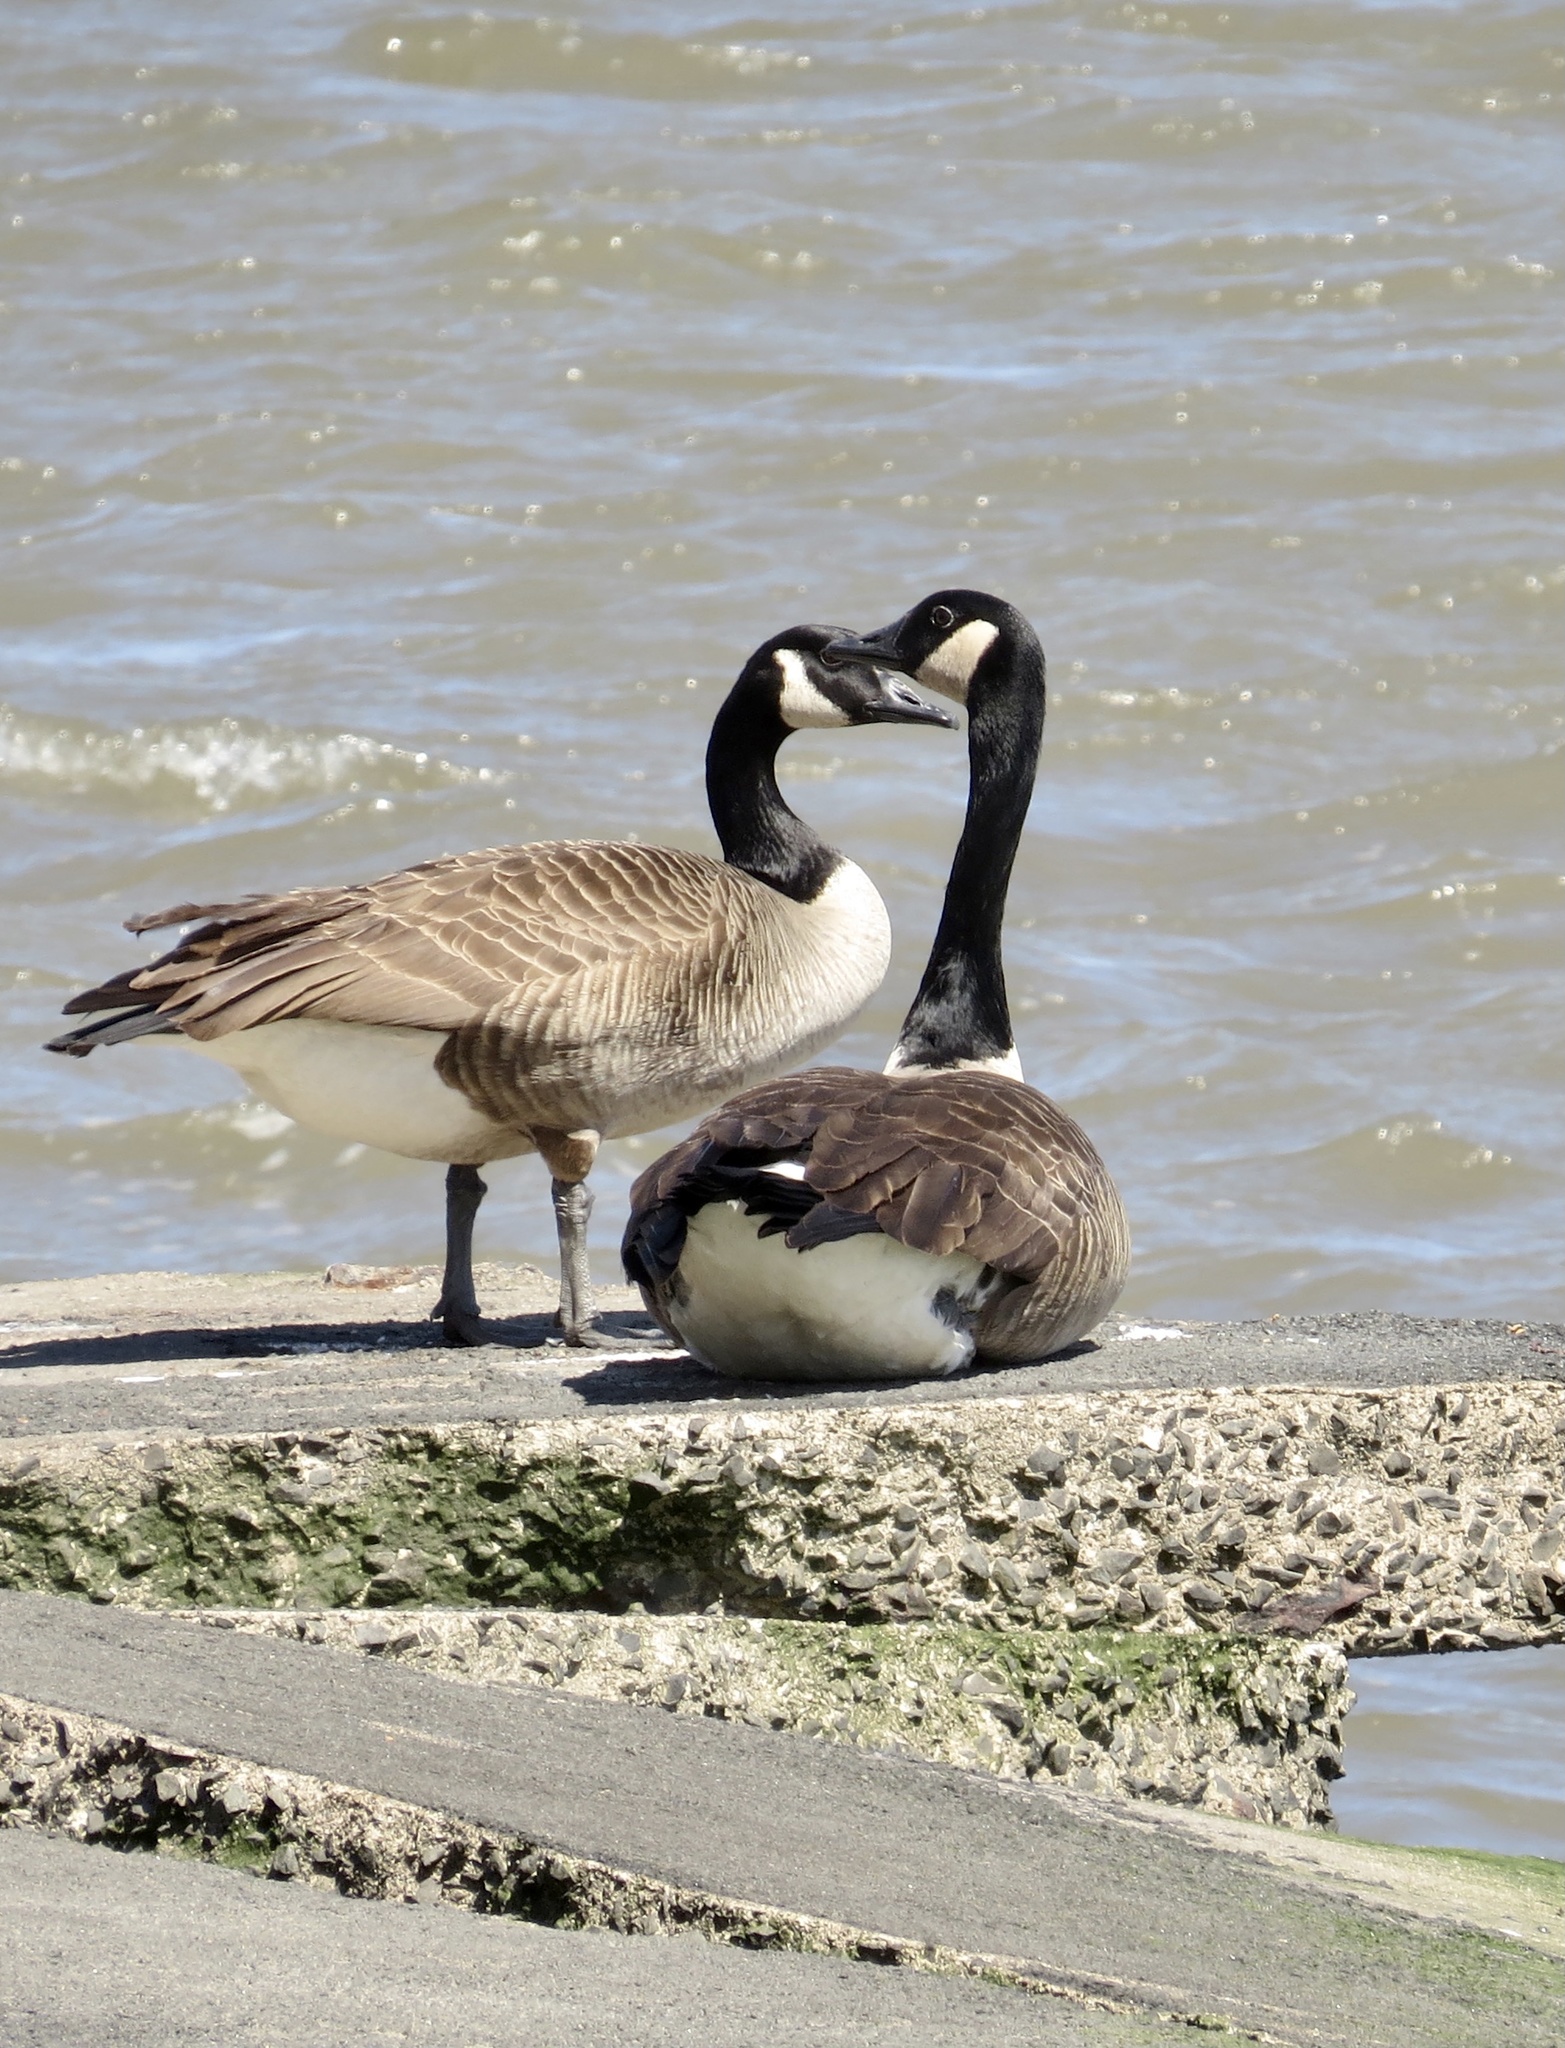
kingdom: Animalia
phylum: Chordata
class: Aves
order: Anseriformes
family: Anatidae
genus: Branta
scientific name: Branta canadensis
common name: Canada goose
